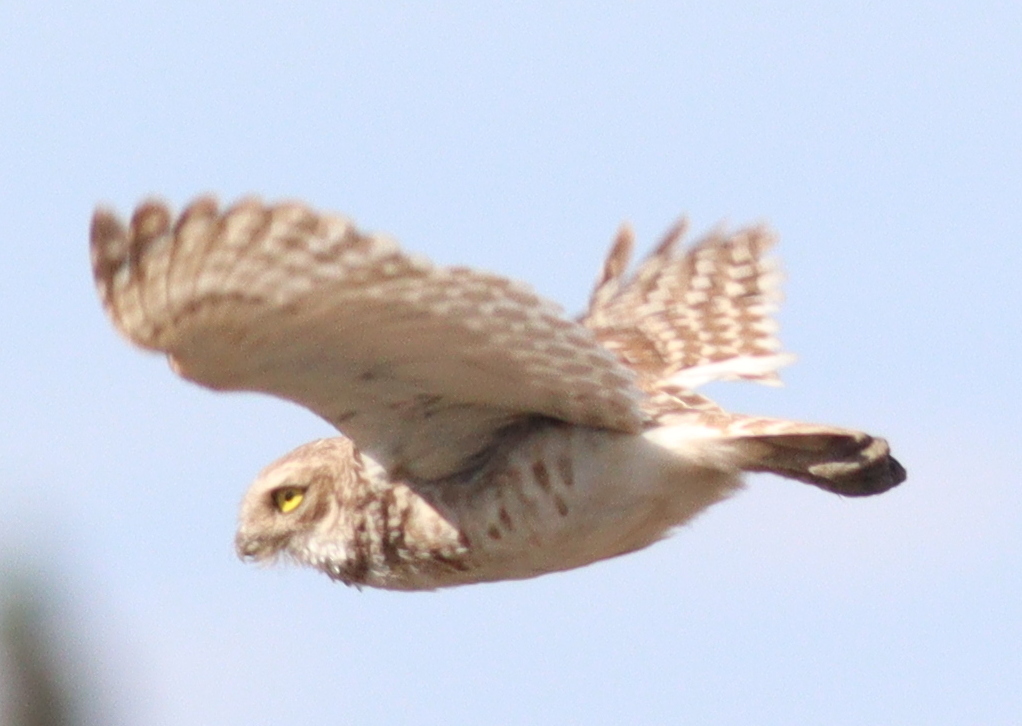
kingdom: Animalia
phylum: Chordata
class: Aves
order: Strigiformes
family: Strigidae
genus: Athene
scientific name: Athene cunicularia
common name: Burrowing owl
